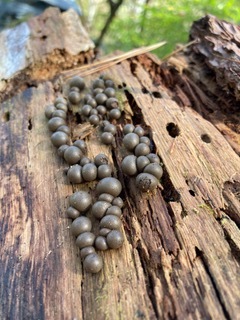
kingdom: Protozoa
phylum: Mycetozoa
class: Myxomycetes
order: Cribrariales
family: Tubiferaceae
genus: Lycogala
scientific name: Lycogala epidendrum
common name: Wolf's milk
